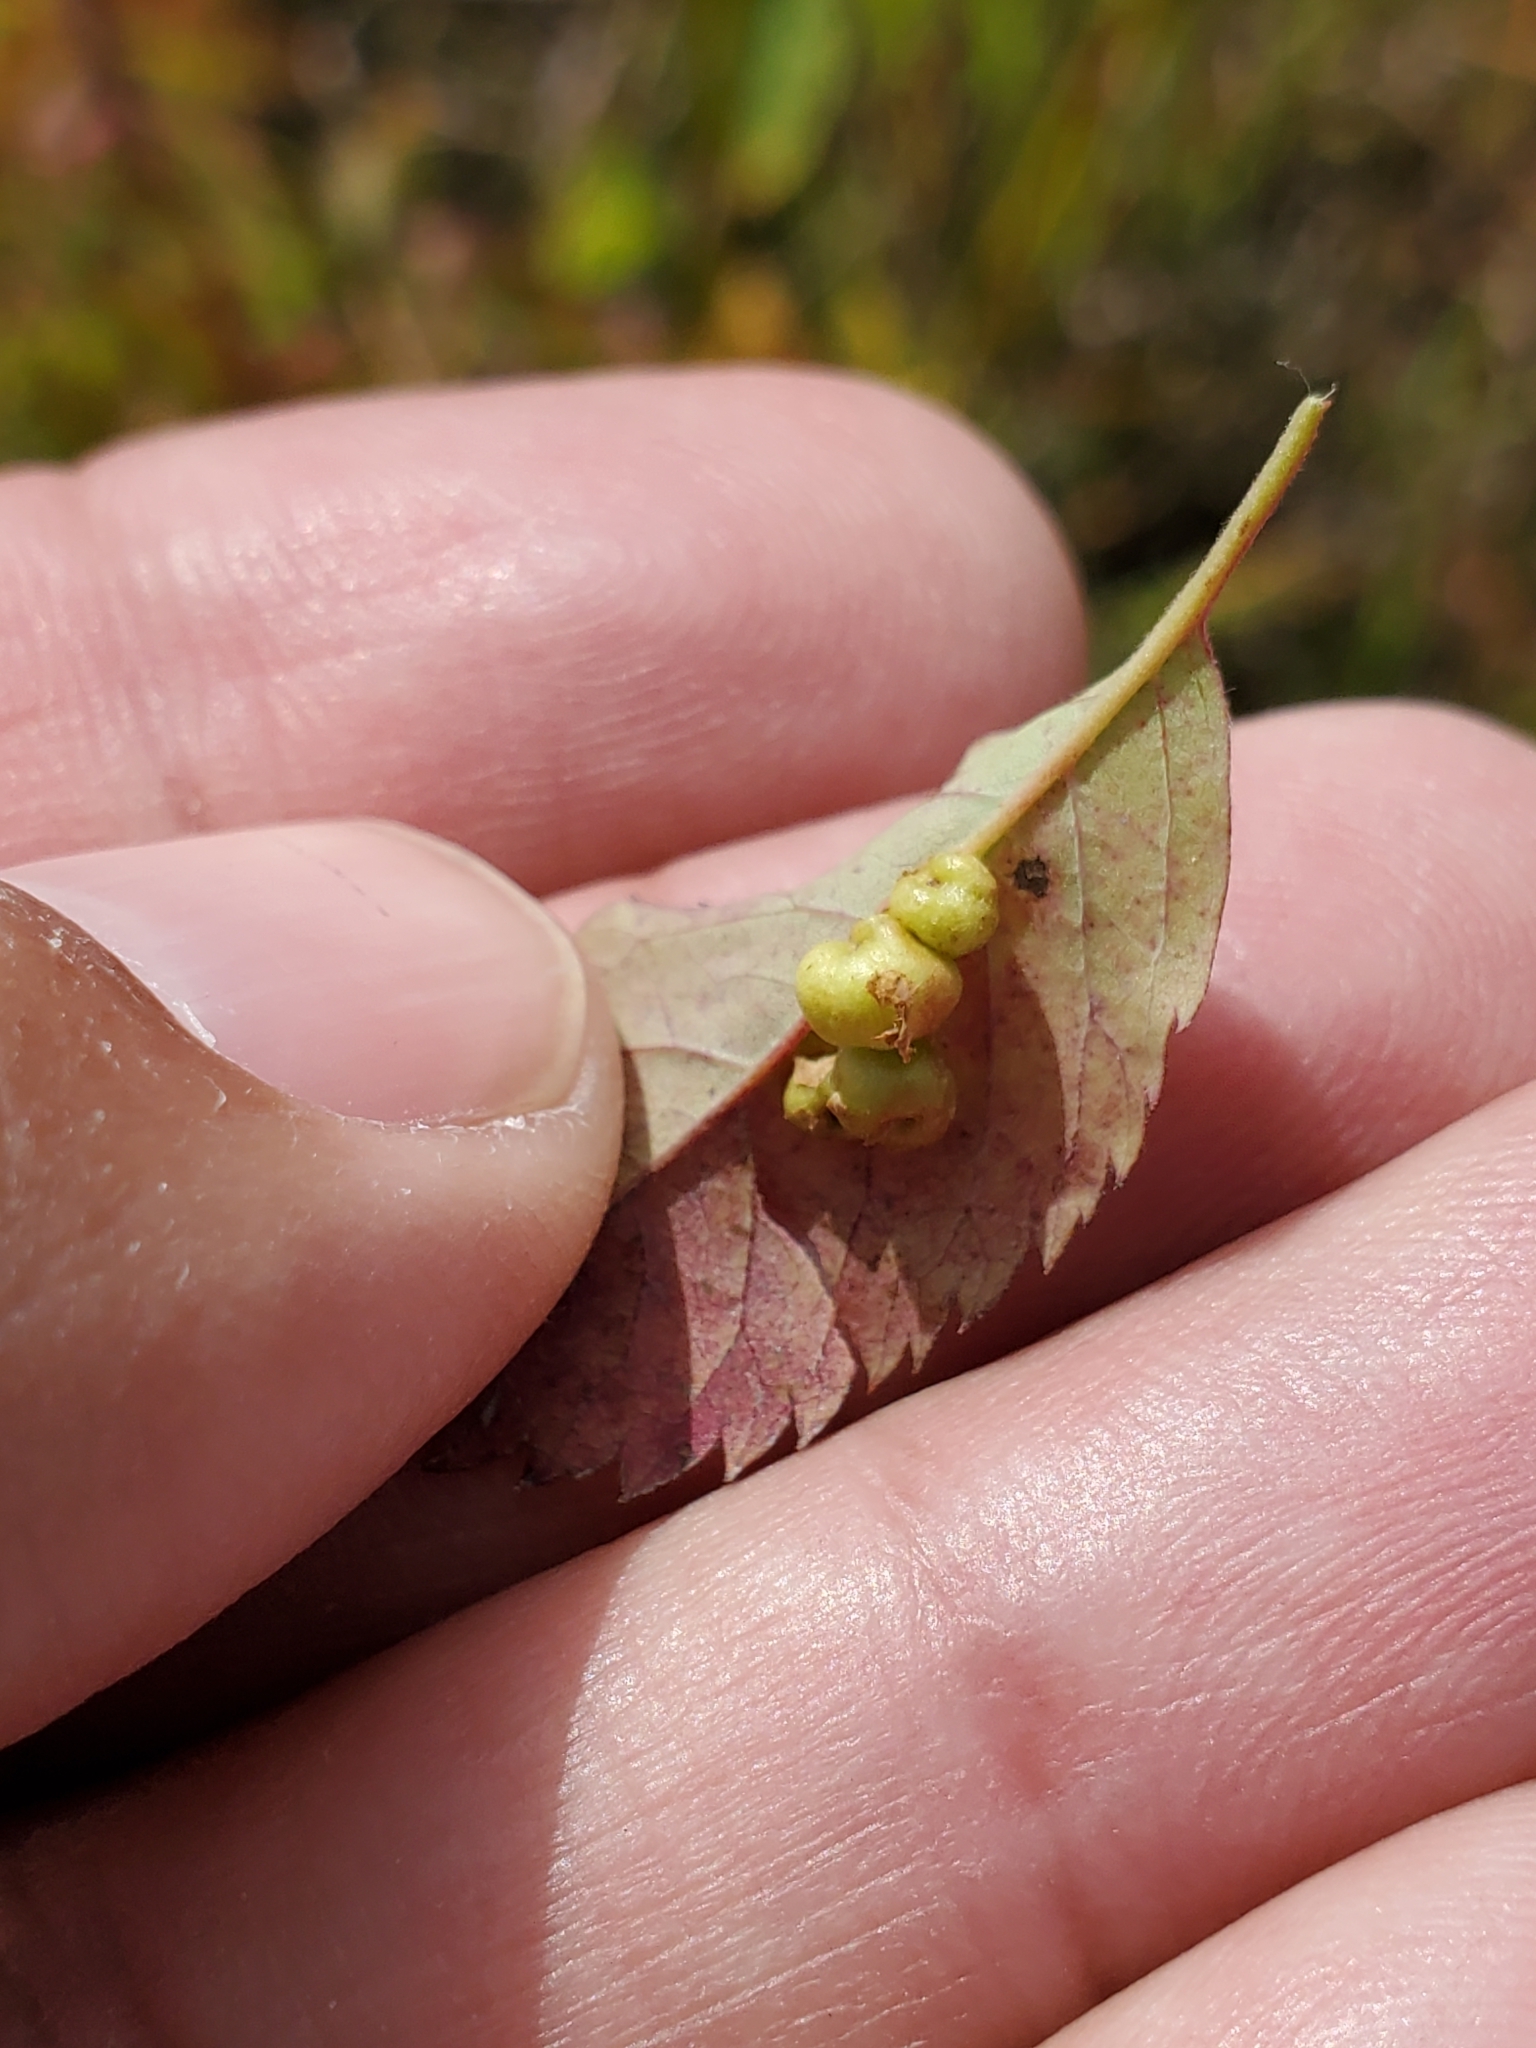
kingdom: Animalia
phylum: Arthropoda
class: Insecta
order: Hymenoptera
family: Cynipidae
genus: Diplolepis
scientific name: Diplolepis gracilis
